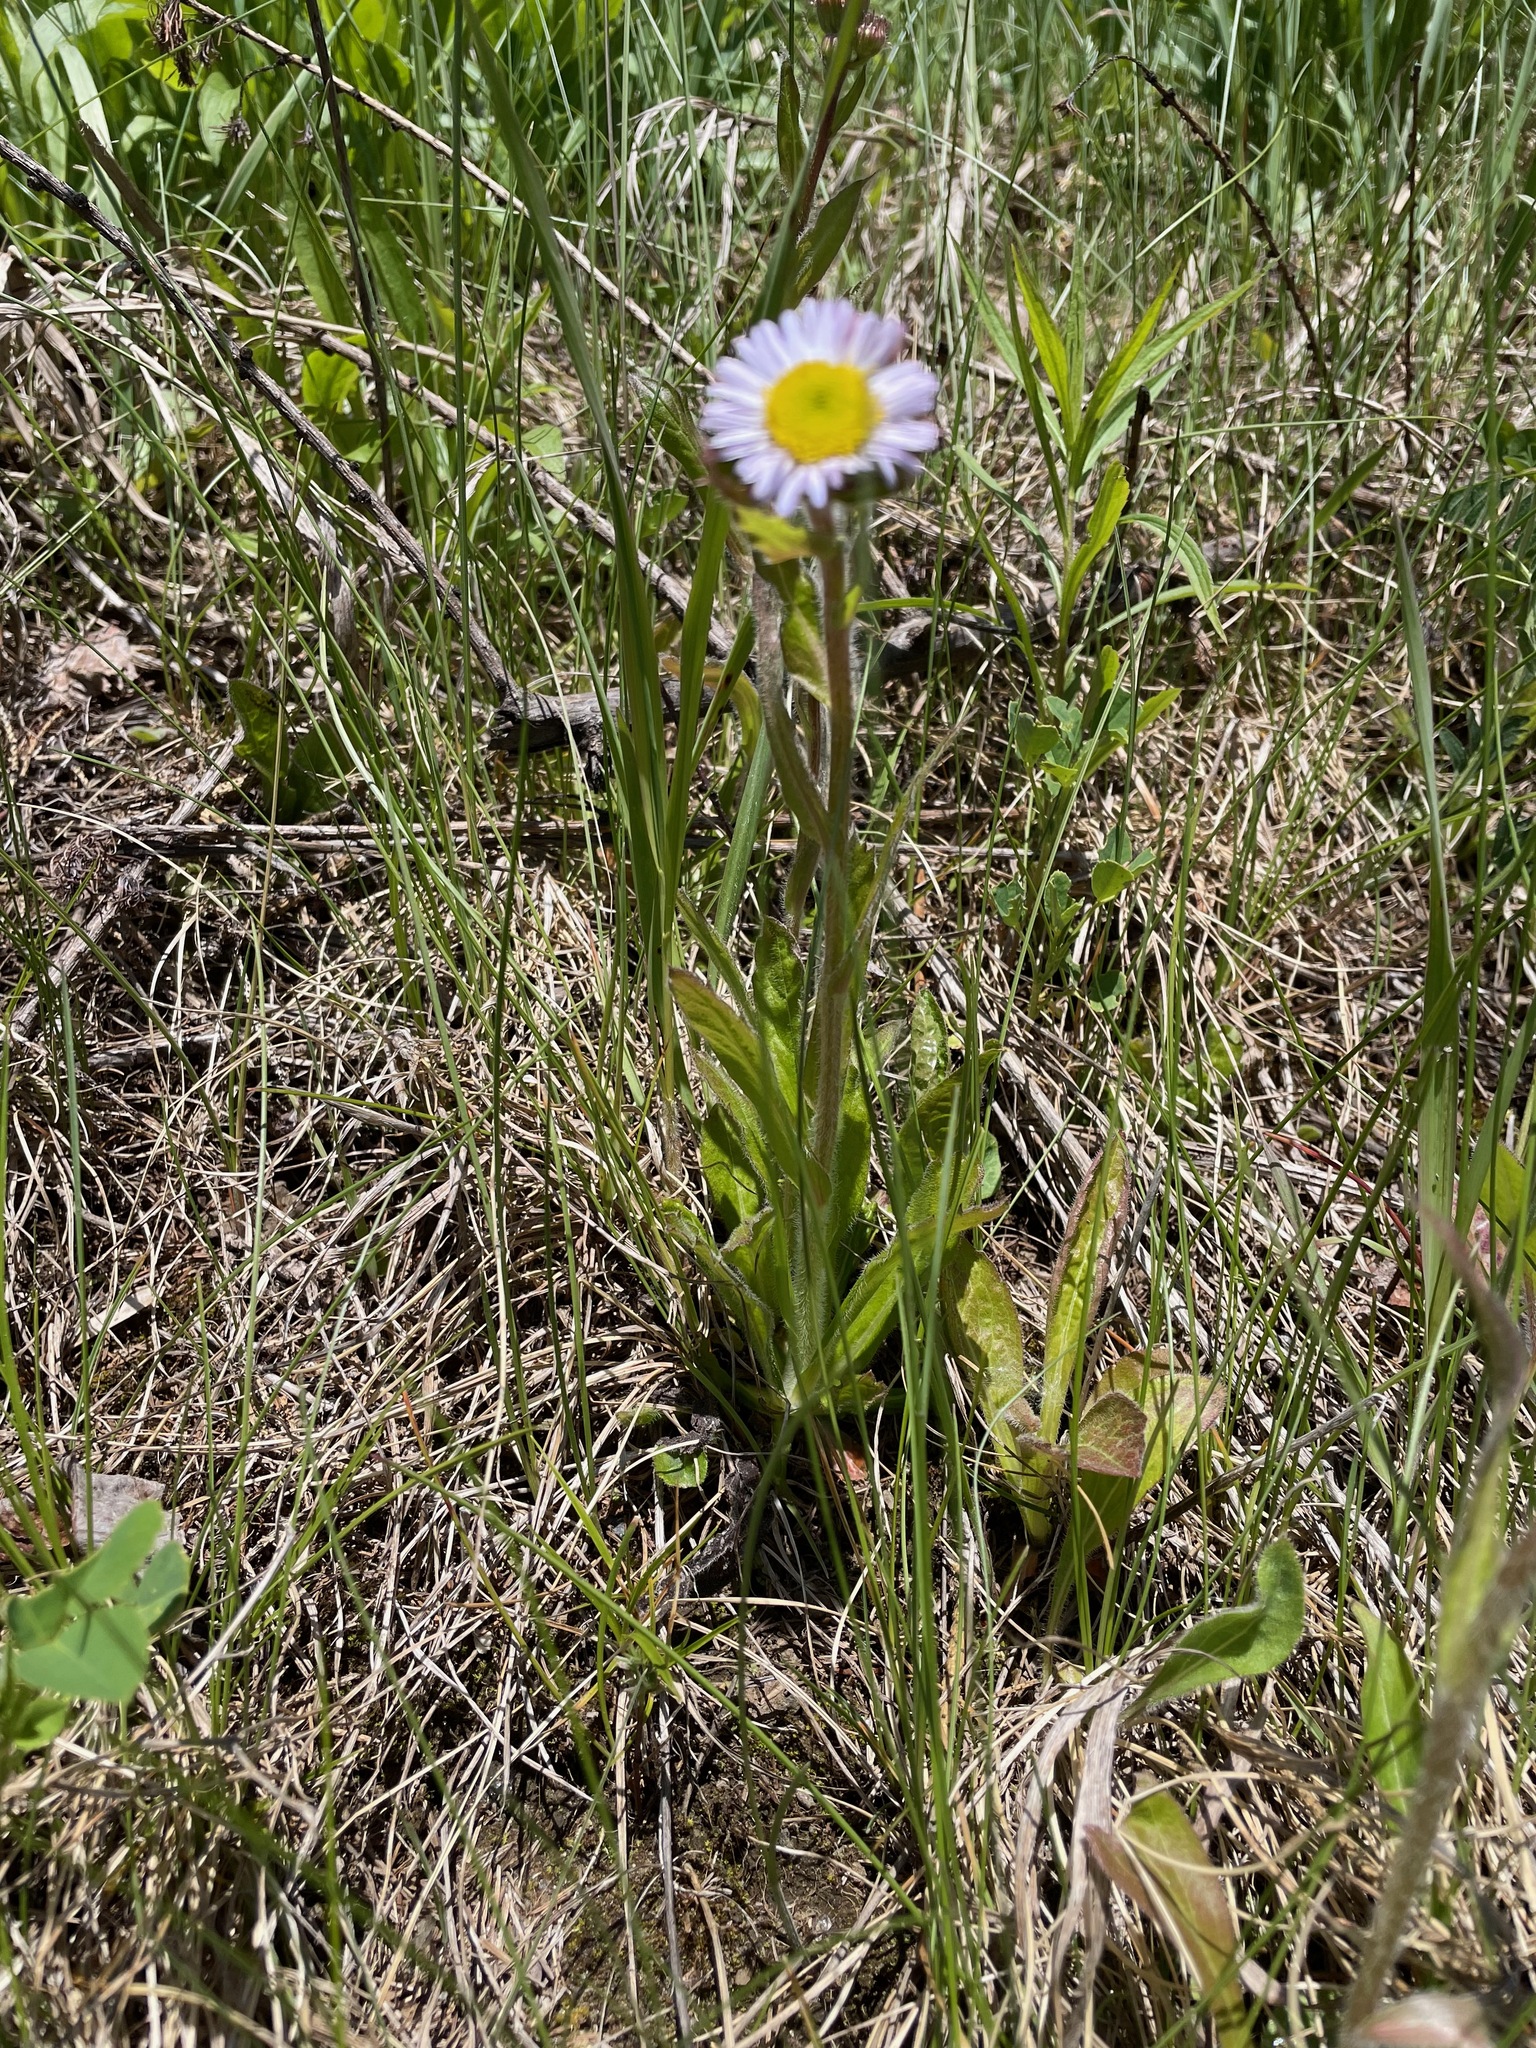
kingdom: Plantae
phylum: Tracheophyta
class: Magnoliopsida
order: Asterales
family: Asteraceae
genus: Erigeron
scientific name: Erigeron pulchellus
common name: Hairy fleabane
